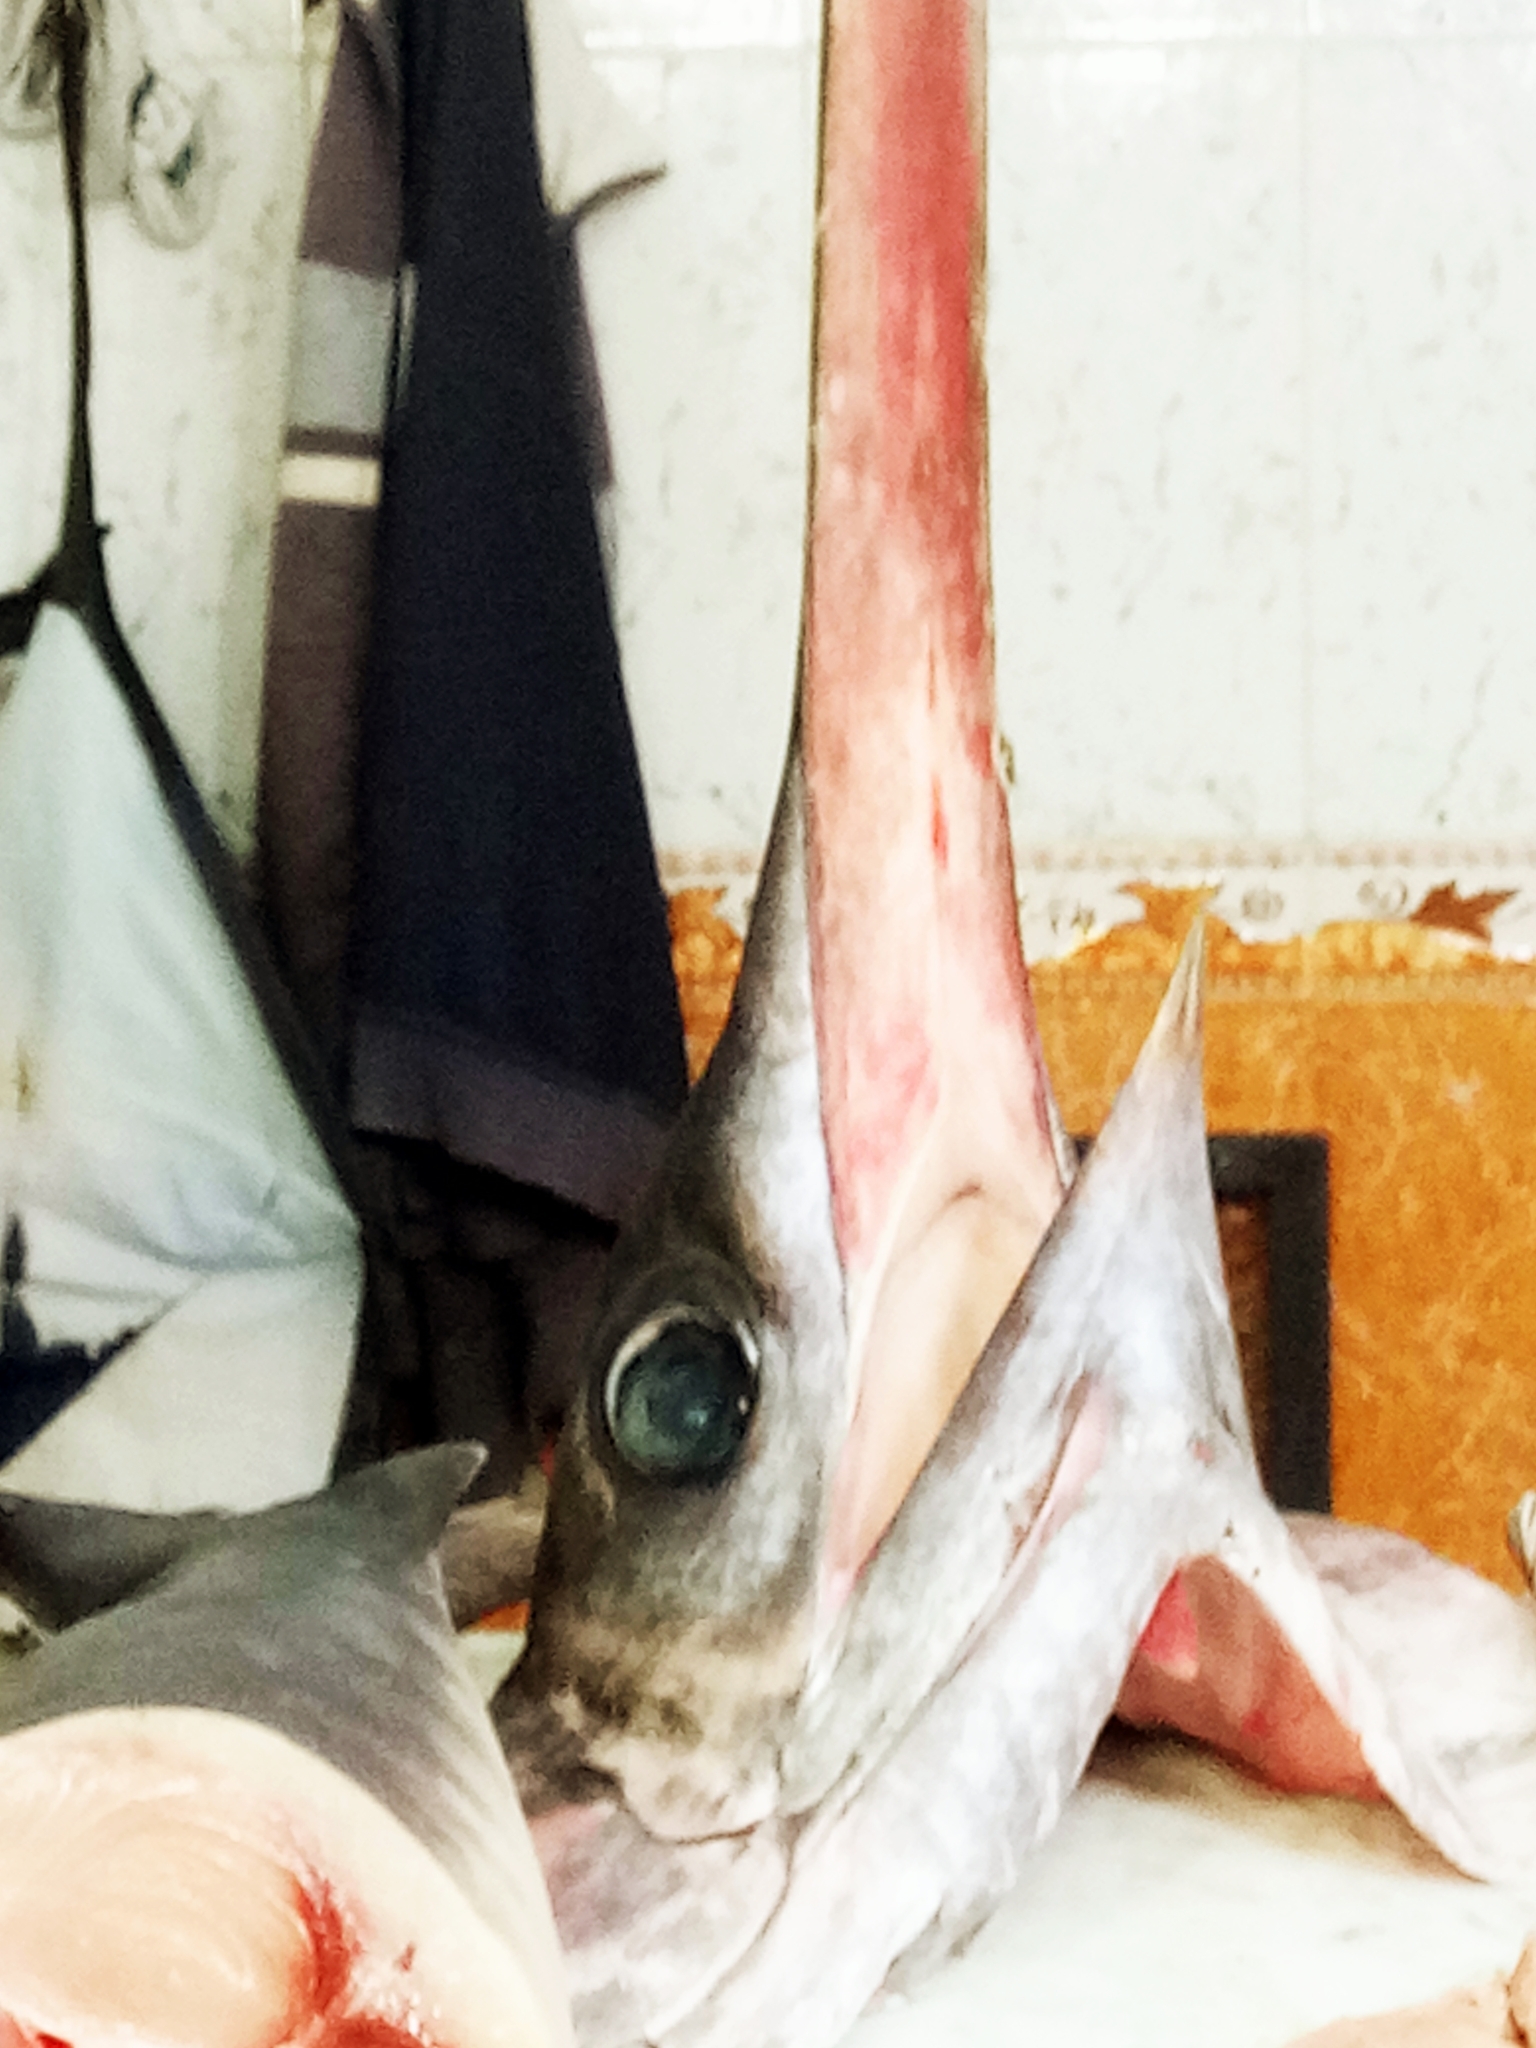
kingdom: Animalia
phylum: Chordata
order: Perciformes
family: Xiphiidae
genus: Xiphias
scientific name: Xiphias gladius
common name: Swordfish
